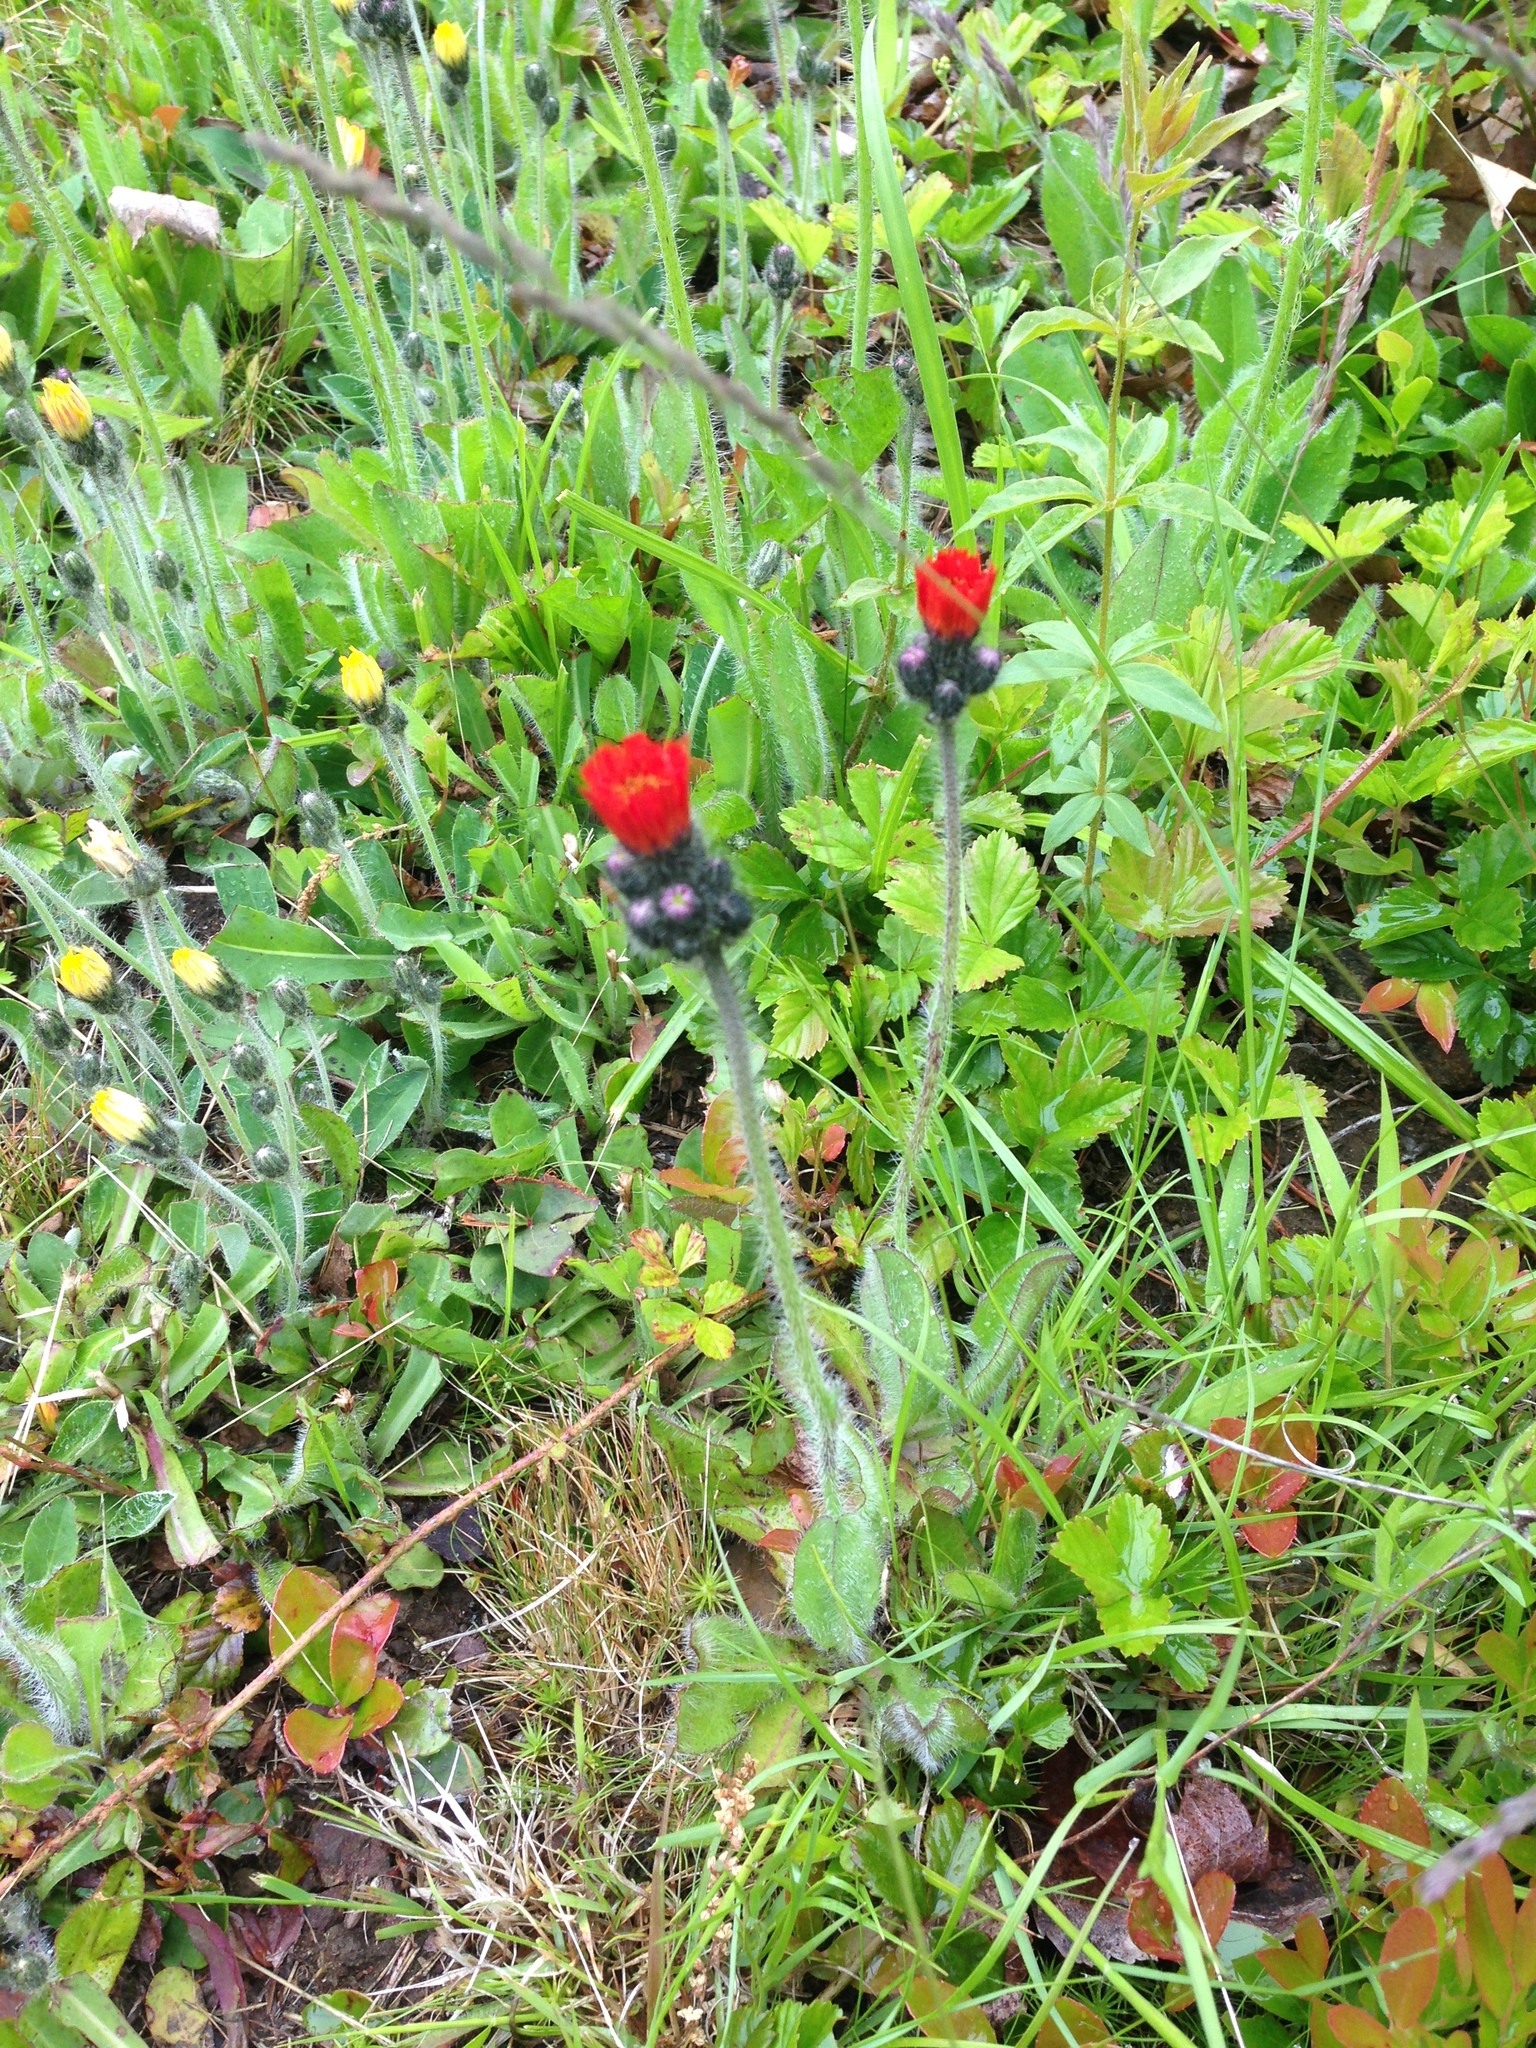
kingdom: Plantae
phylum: Tracheophyta
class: Magnoliopsida
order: Asterales
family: Asteraceae
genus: Pilosella
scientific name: Pilosella aurantiaca
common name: Fox-and-cubs
